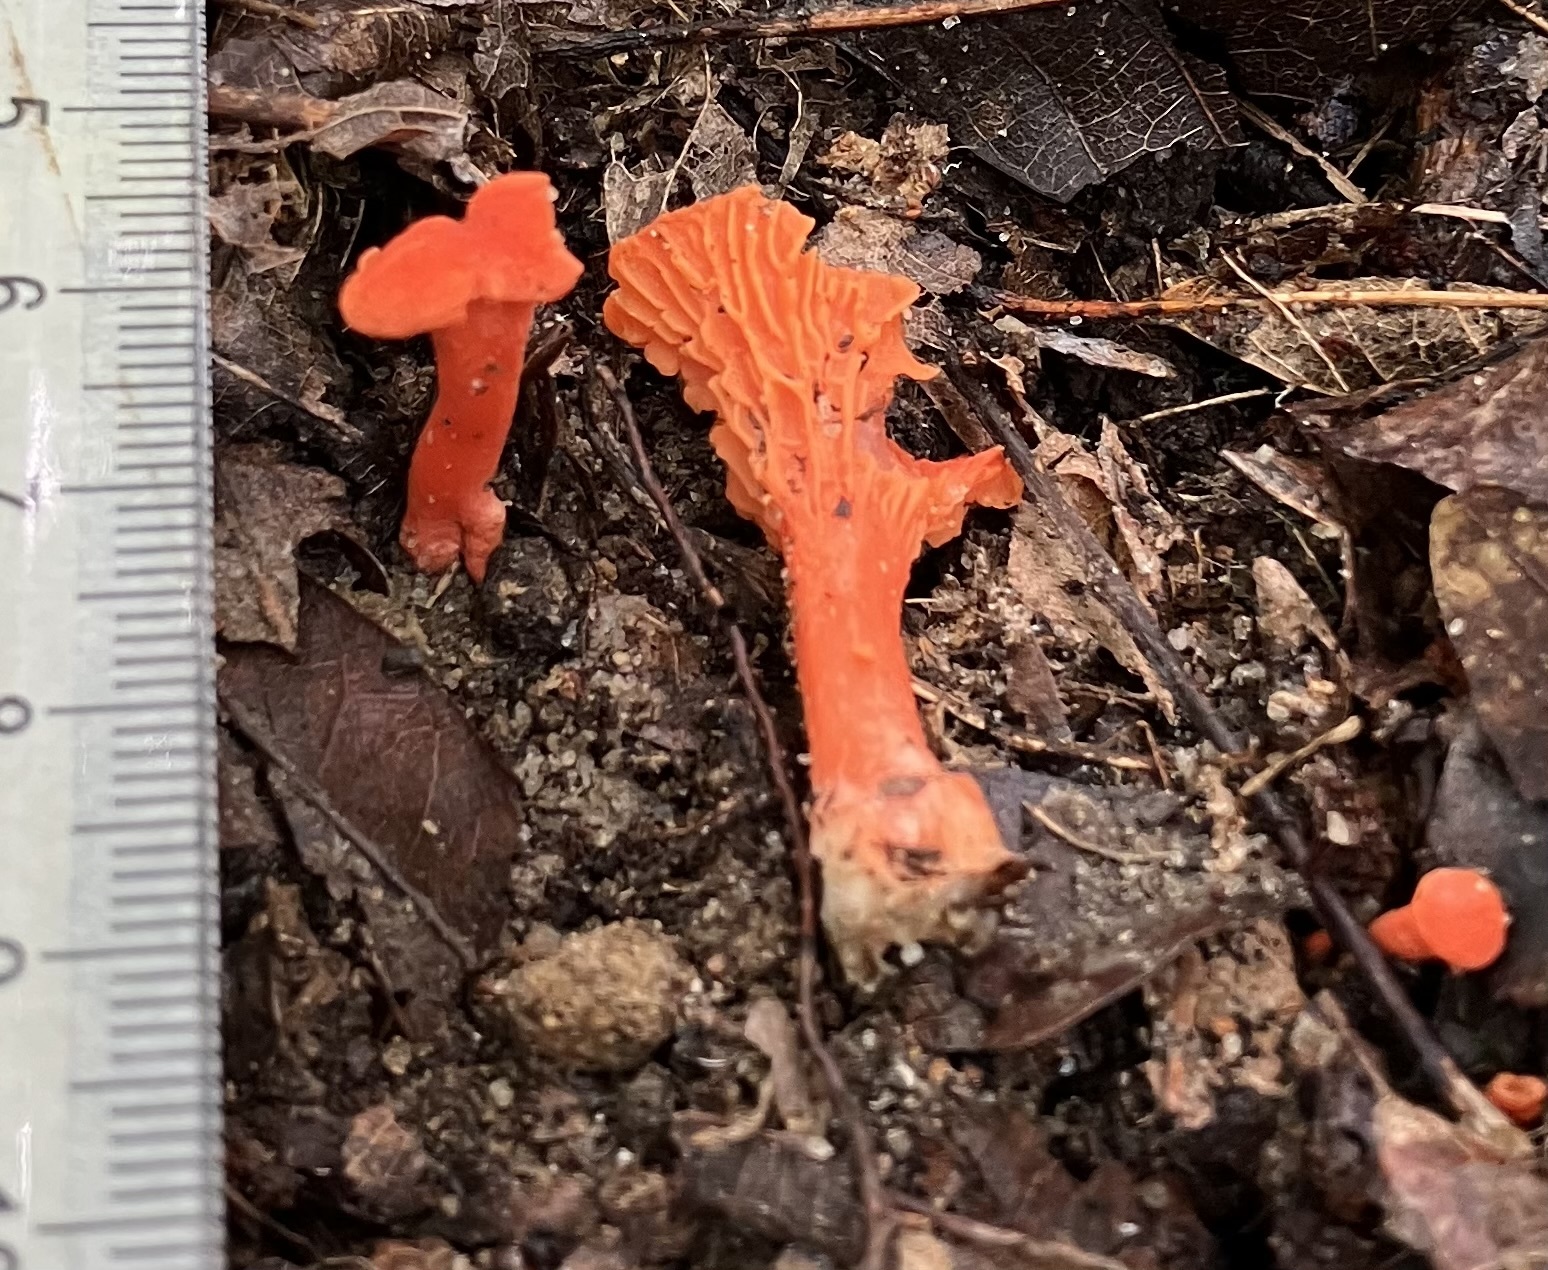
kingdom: Fungi
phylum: Basidiomycota
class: Agaricomycetes
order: Cantharellales
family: Hydnaceae
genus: Cantharellus
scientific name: Cantharellus cinnabarinus
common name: Cinnabar chanterelle
